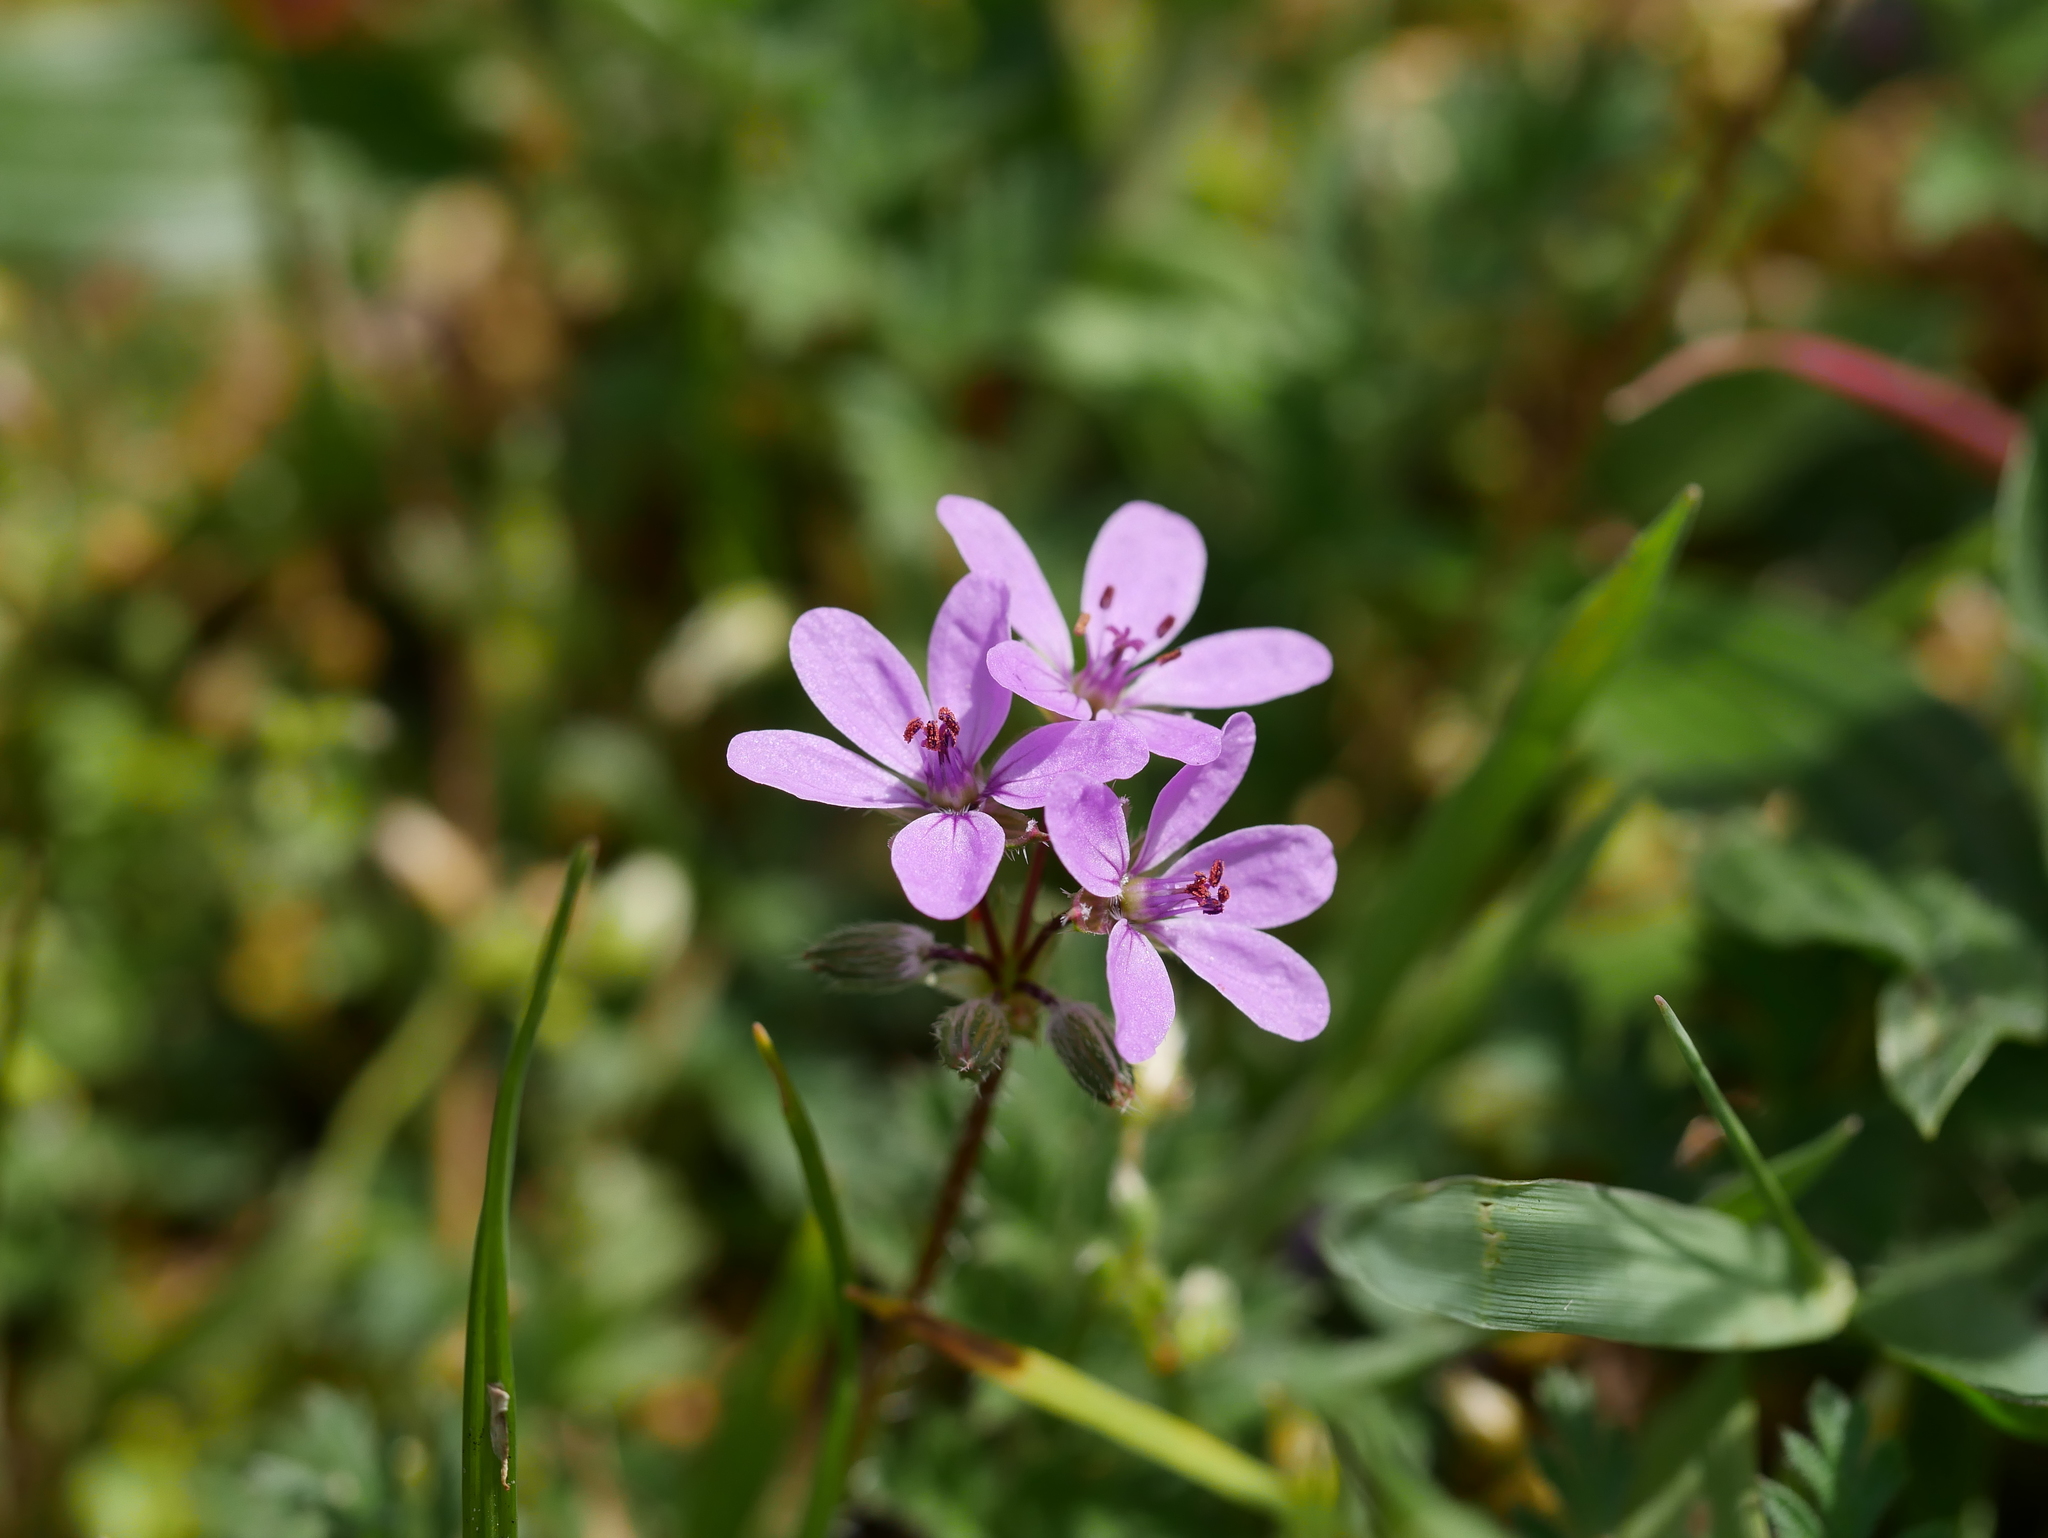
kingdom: Plantae
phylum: Tracheophyta
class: Magnoliopsida
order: Geraniales
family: Geraniaceae
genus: Erodium
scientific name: Erodium cicutarium
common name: Common stork's-bill
